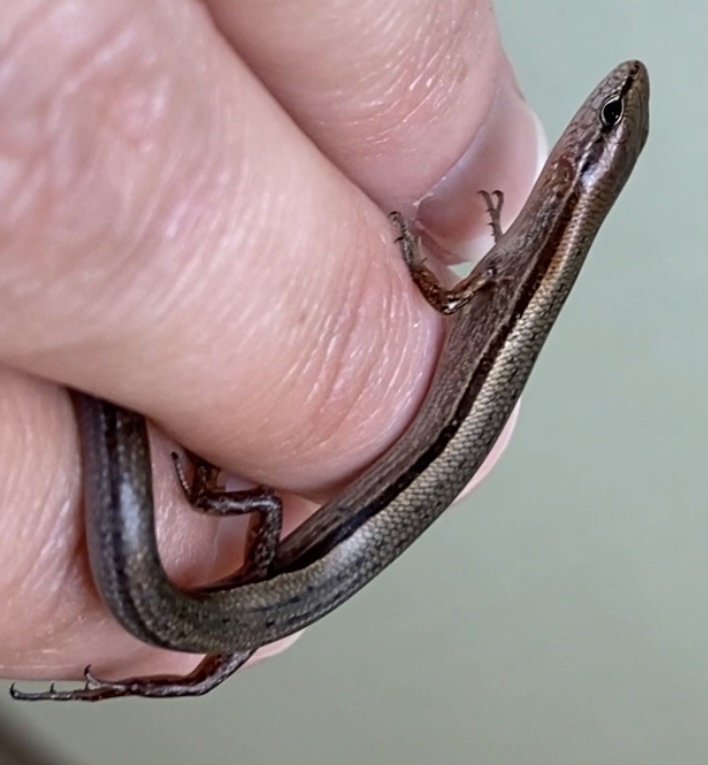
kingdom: Animalia
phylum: Chordata
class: Squamata
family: Scincidae
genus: Scincella
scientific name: Scincella lateralis
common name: Ground skink
